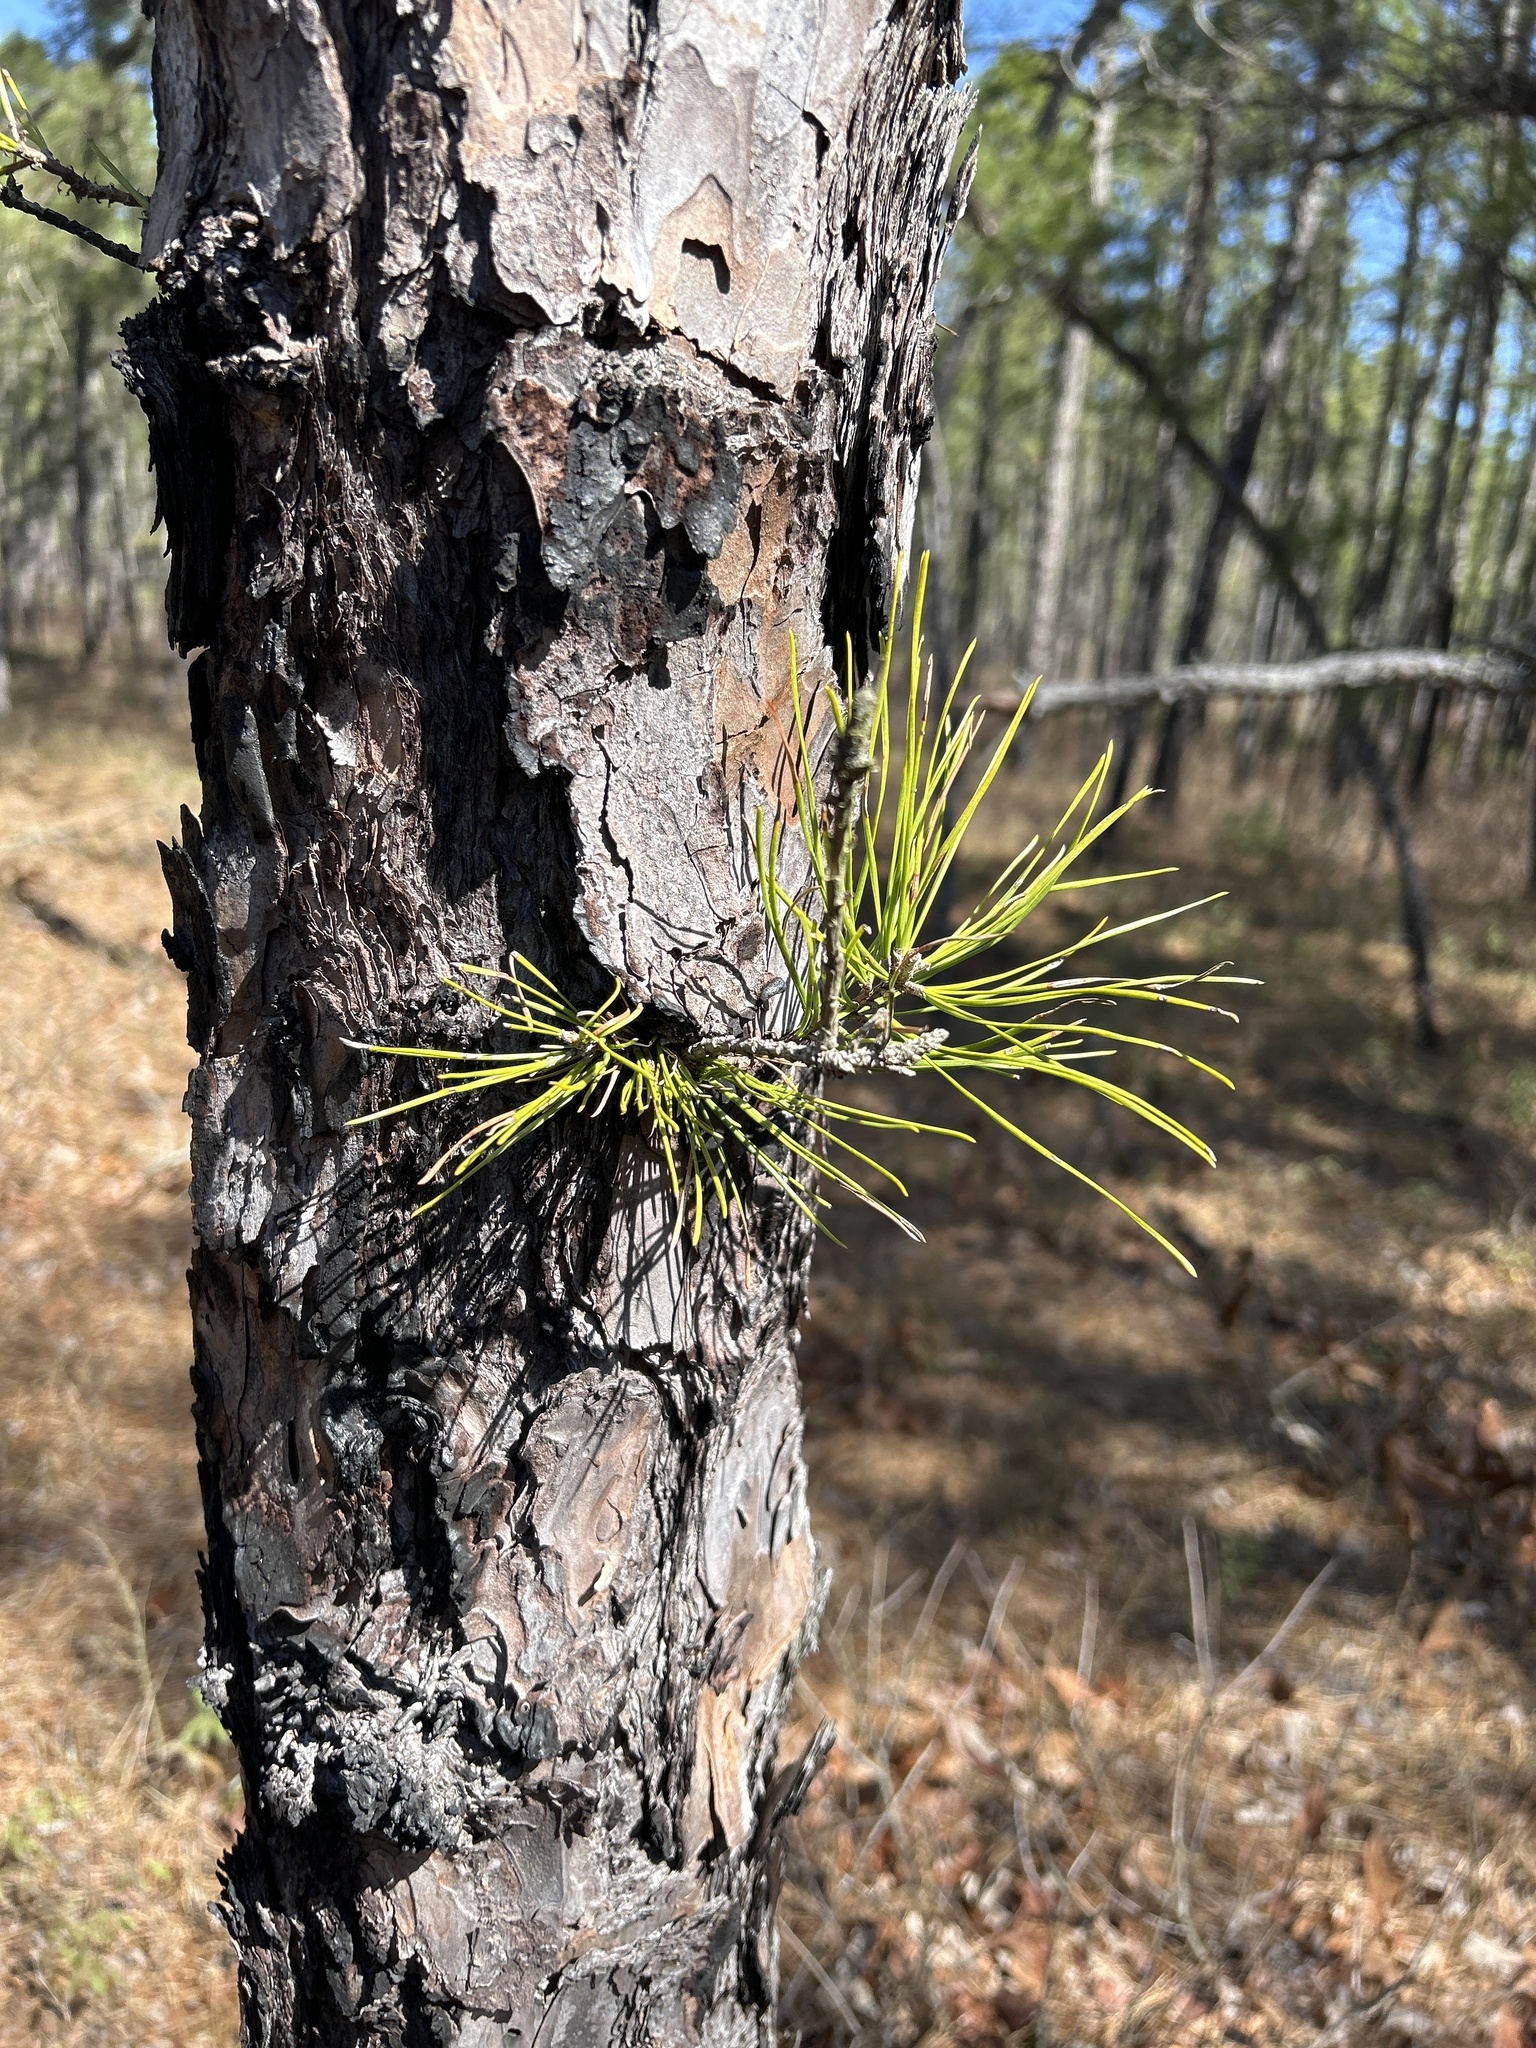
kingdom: Plantae
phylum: Tracheophyta
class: Pinopsida
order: Pinales
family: Pinaceae
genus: Pinus
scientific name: Pinus rigida
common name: Pitch pine
